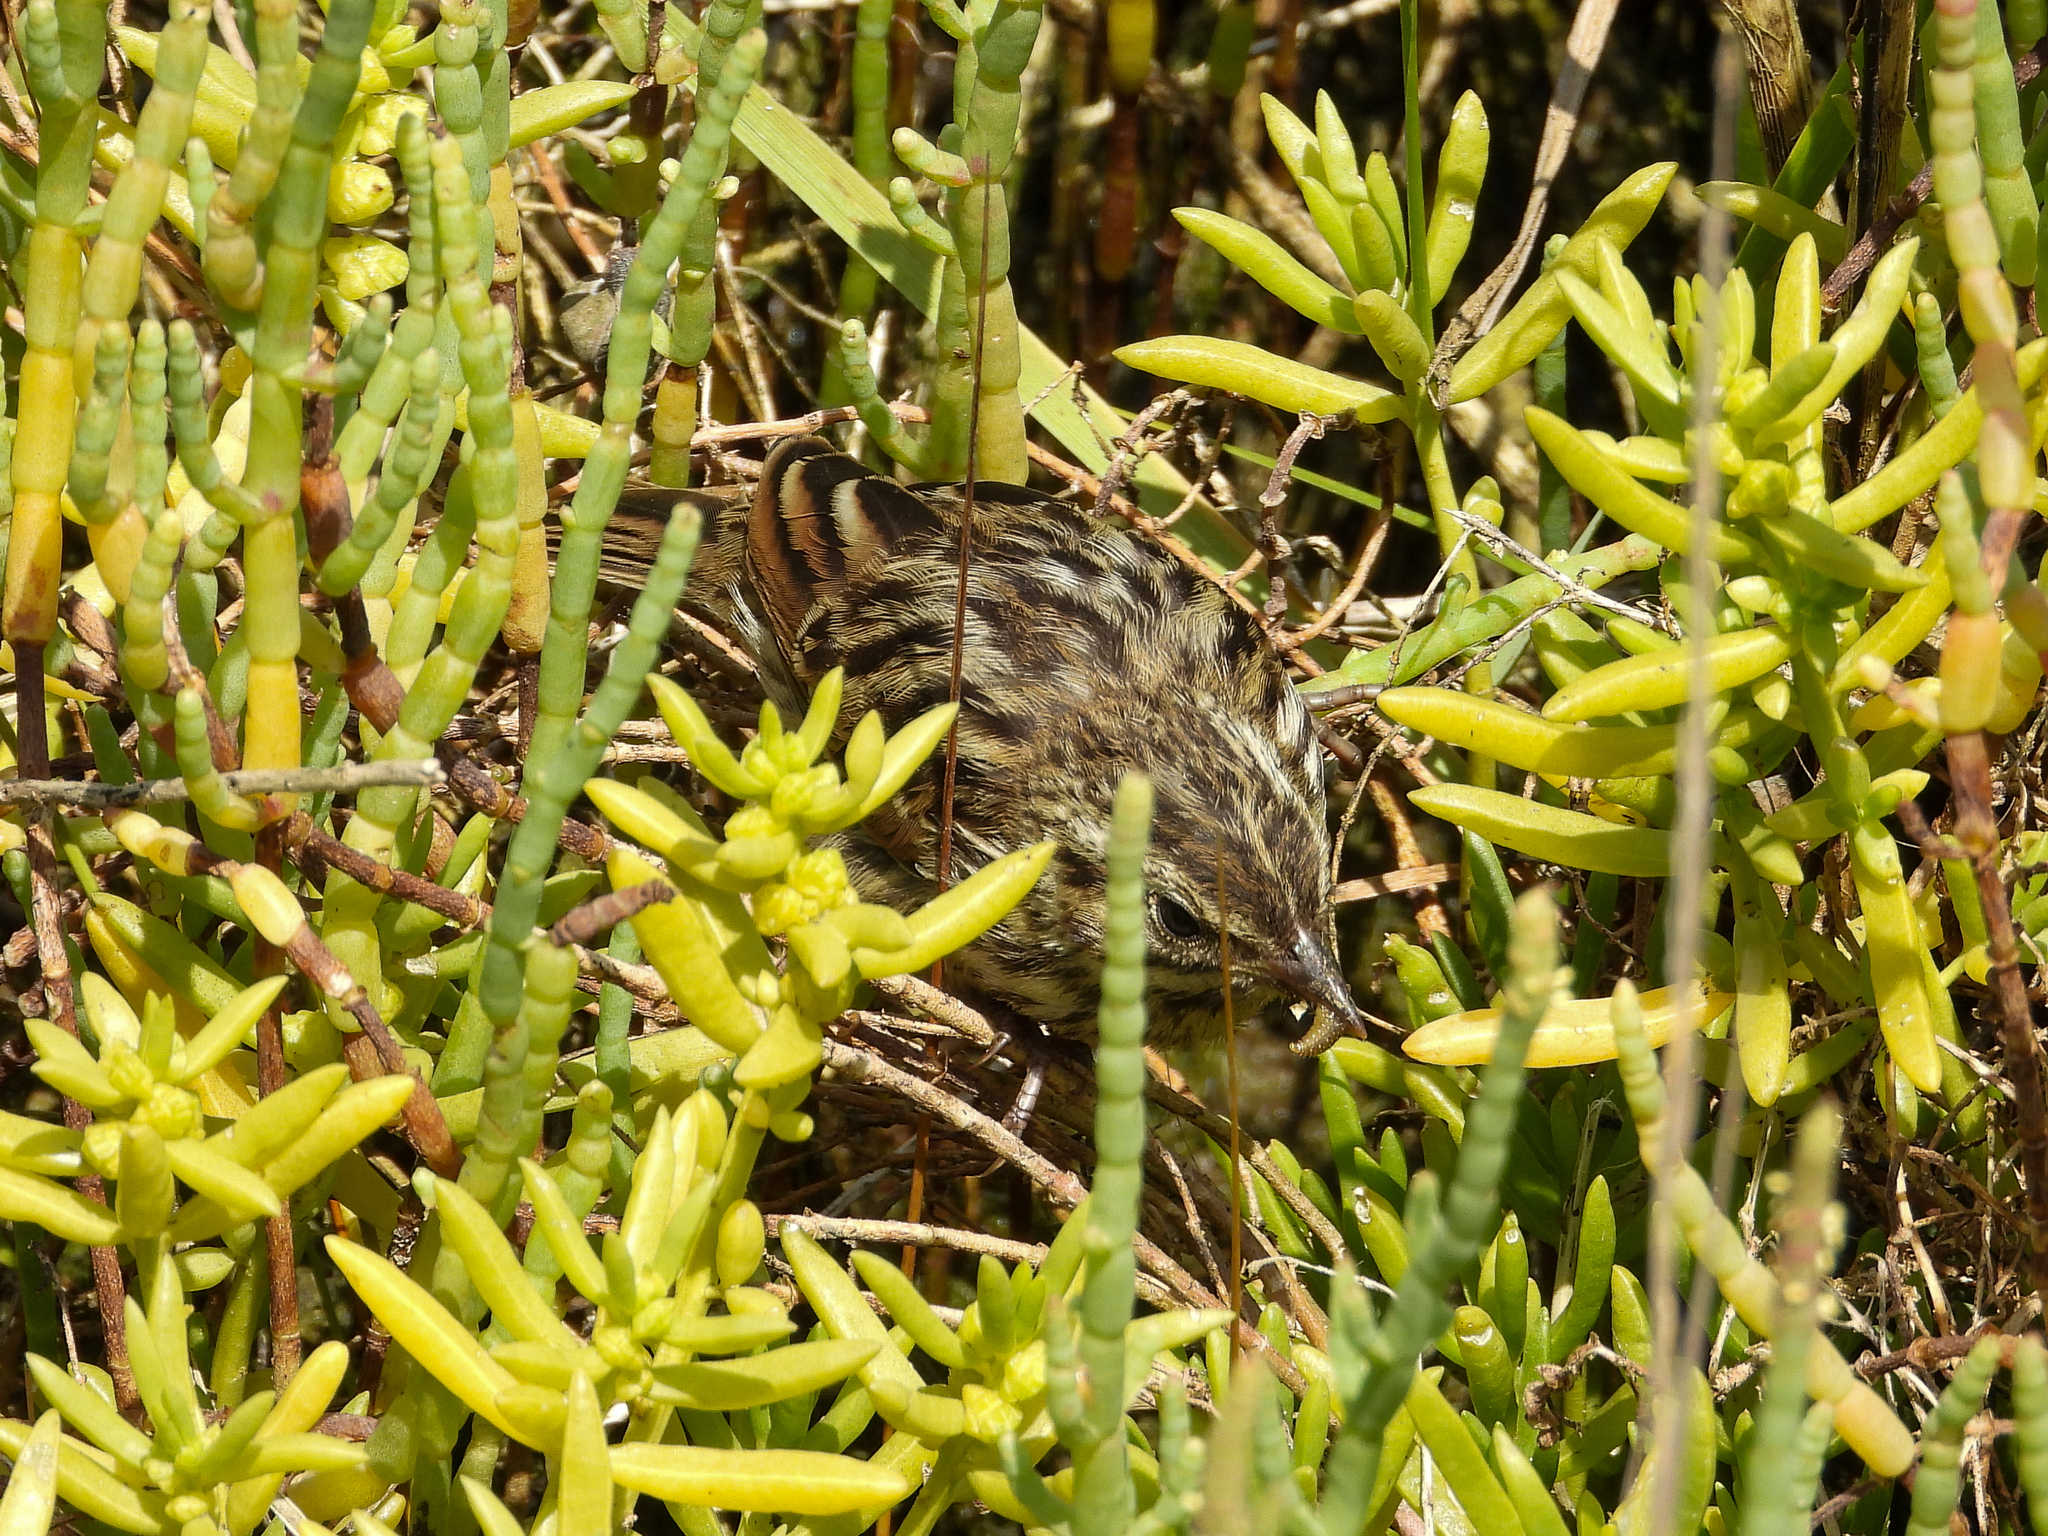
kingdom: Animalia
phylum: Chordata
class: Aves
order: Passeriformes
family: Passerellidae
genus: Passerculus
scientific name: Passerculus sandwichensis
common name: Savannah sparrow
